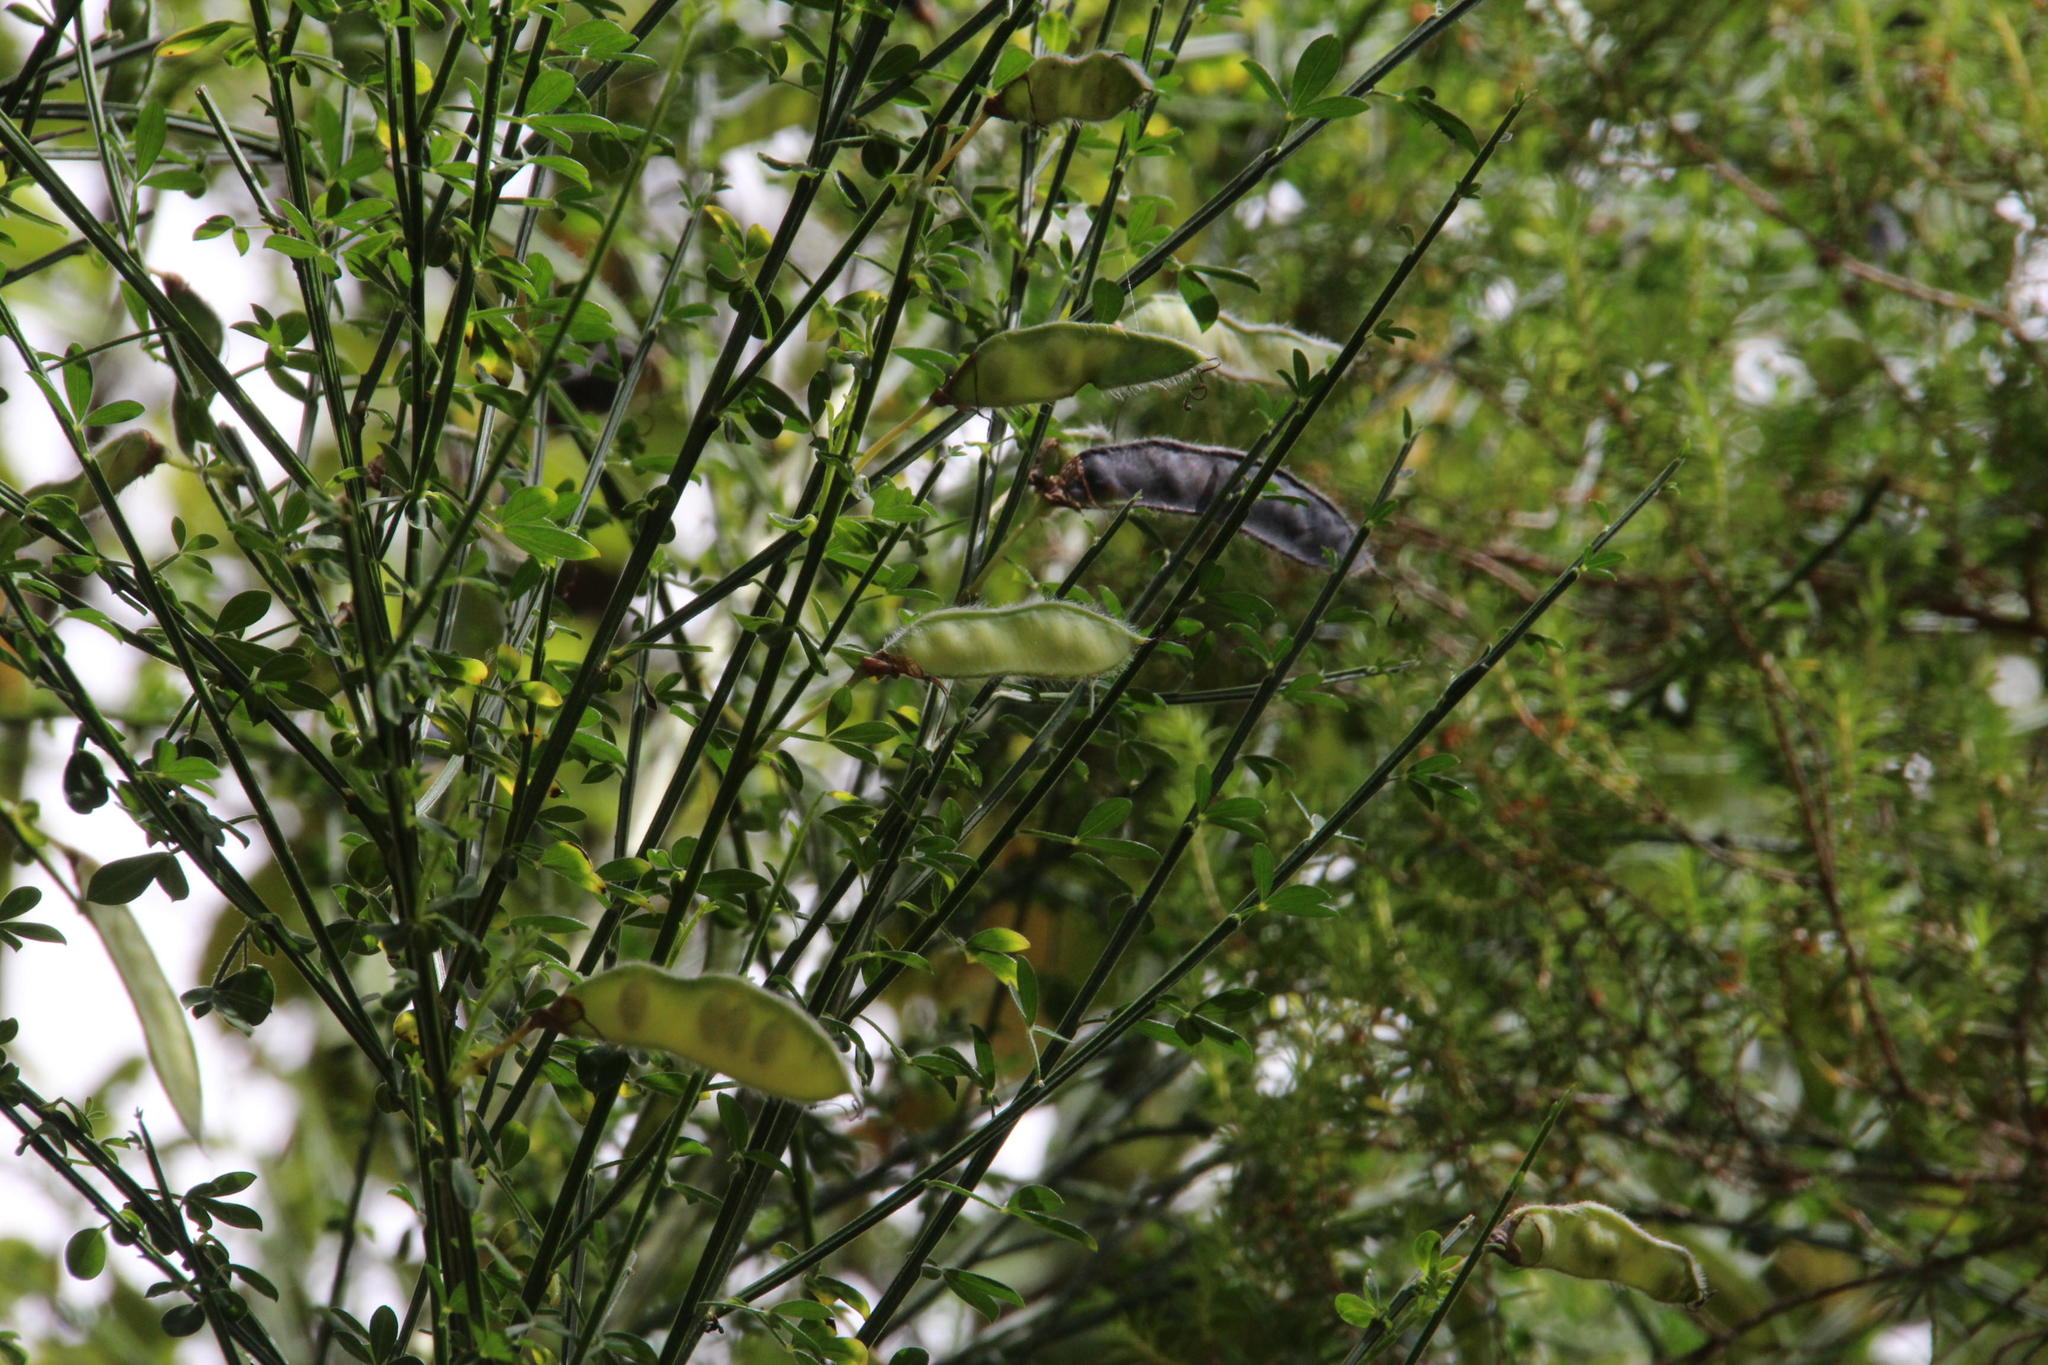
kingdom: Plantae
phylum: Tracheophyta
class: Magnoliopsida
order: Fabales
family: Fabaceae
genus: Cytisus
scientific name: Cytisus scoparius
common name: Scotch broom
